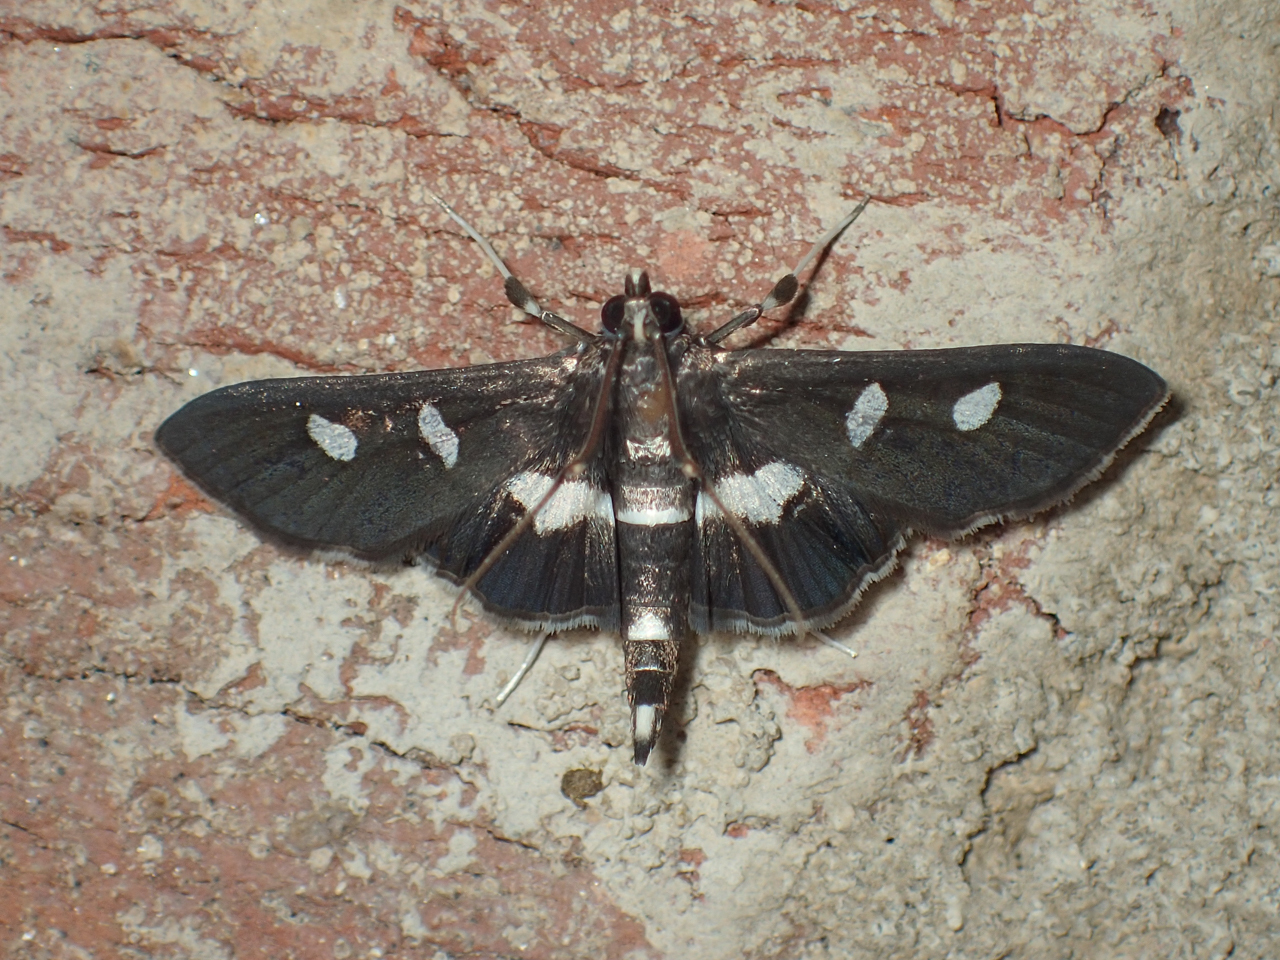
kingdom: Animalia
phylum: Arthropoda
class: Insecta
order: Lepidoptera
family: Crambidae
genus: Desmia
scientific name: Desmia
